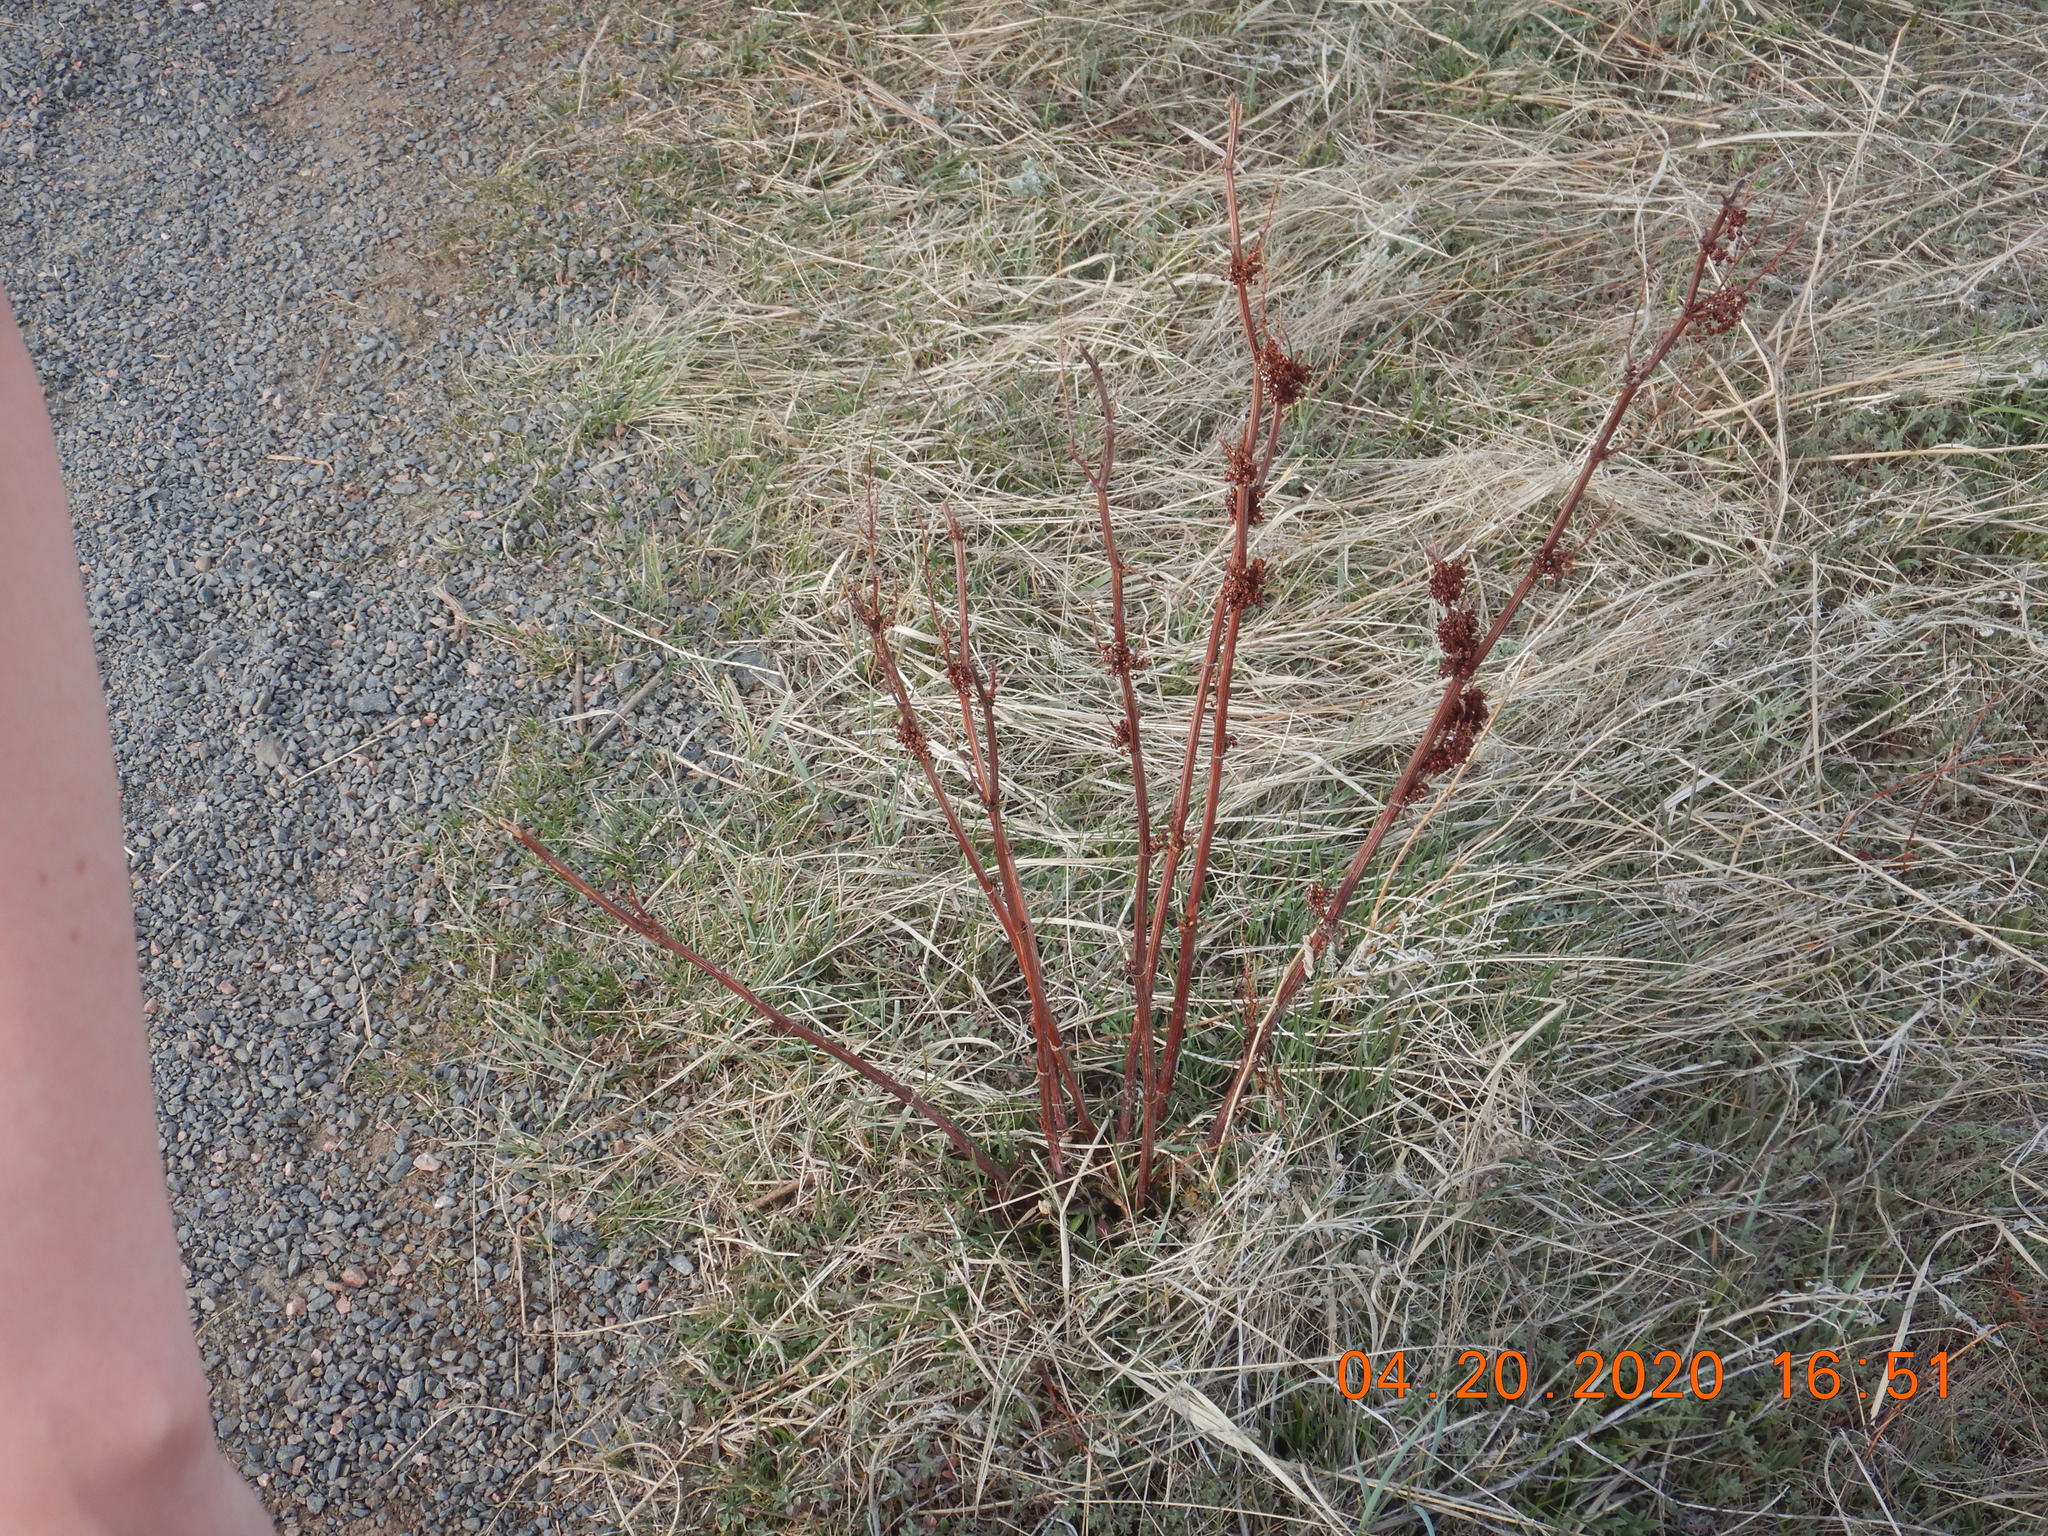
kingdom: Plantae
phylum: Tracheophyta
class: Magnoliopsida
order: Caryophyllales
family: Polygonaceae
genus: Rumex
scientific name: Rumex crispus
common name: Curled dock
